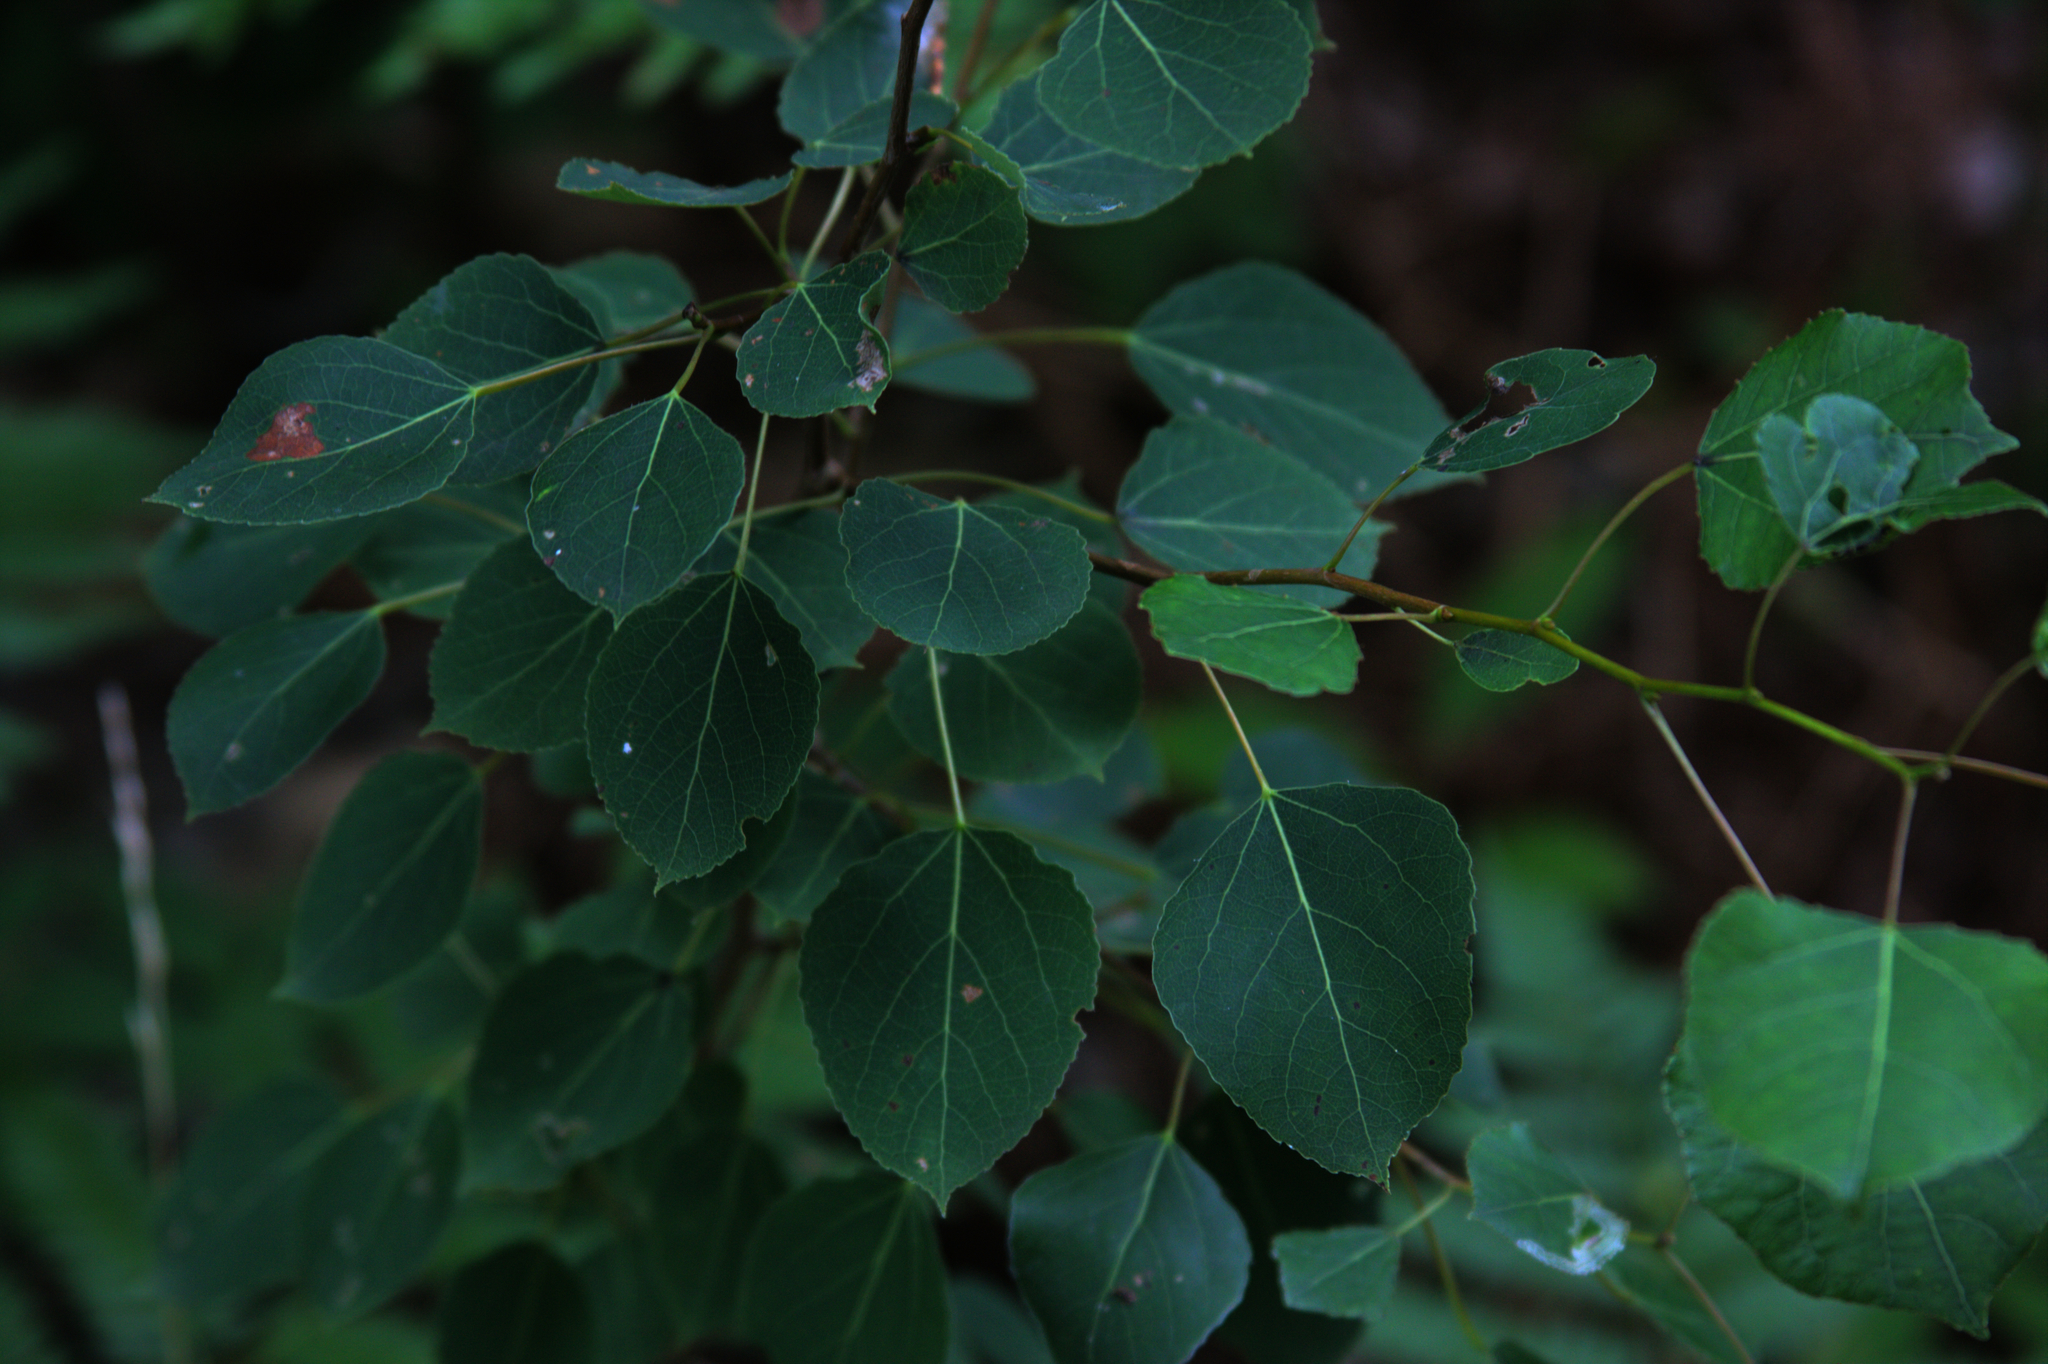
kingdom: Plantae
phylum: Tracheophyta
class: Magnoliopsida
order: Malpighiales
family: Salicaceae
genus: Populus
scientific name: Populus tremuloides
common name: Quaking aspen
